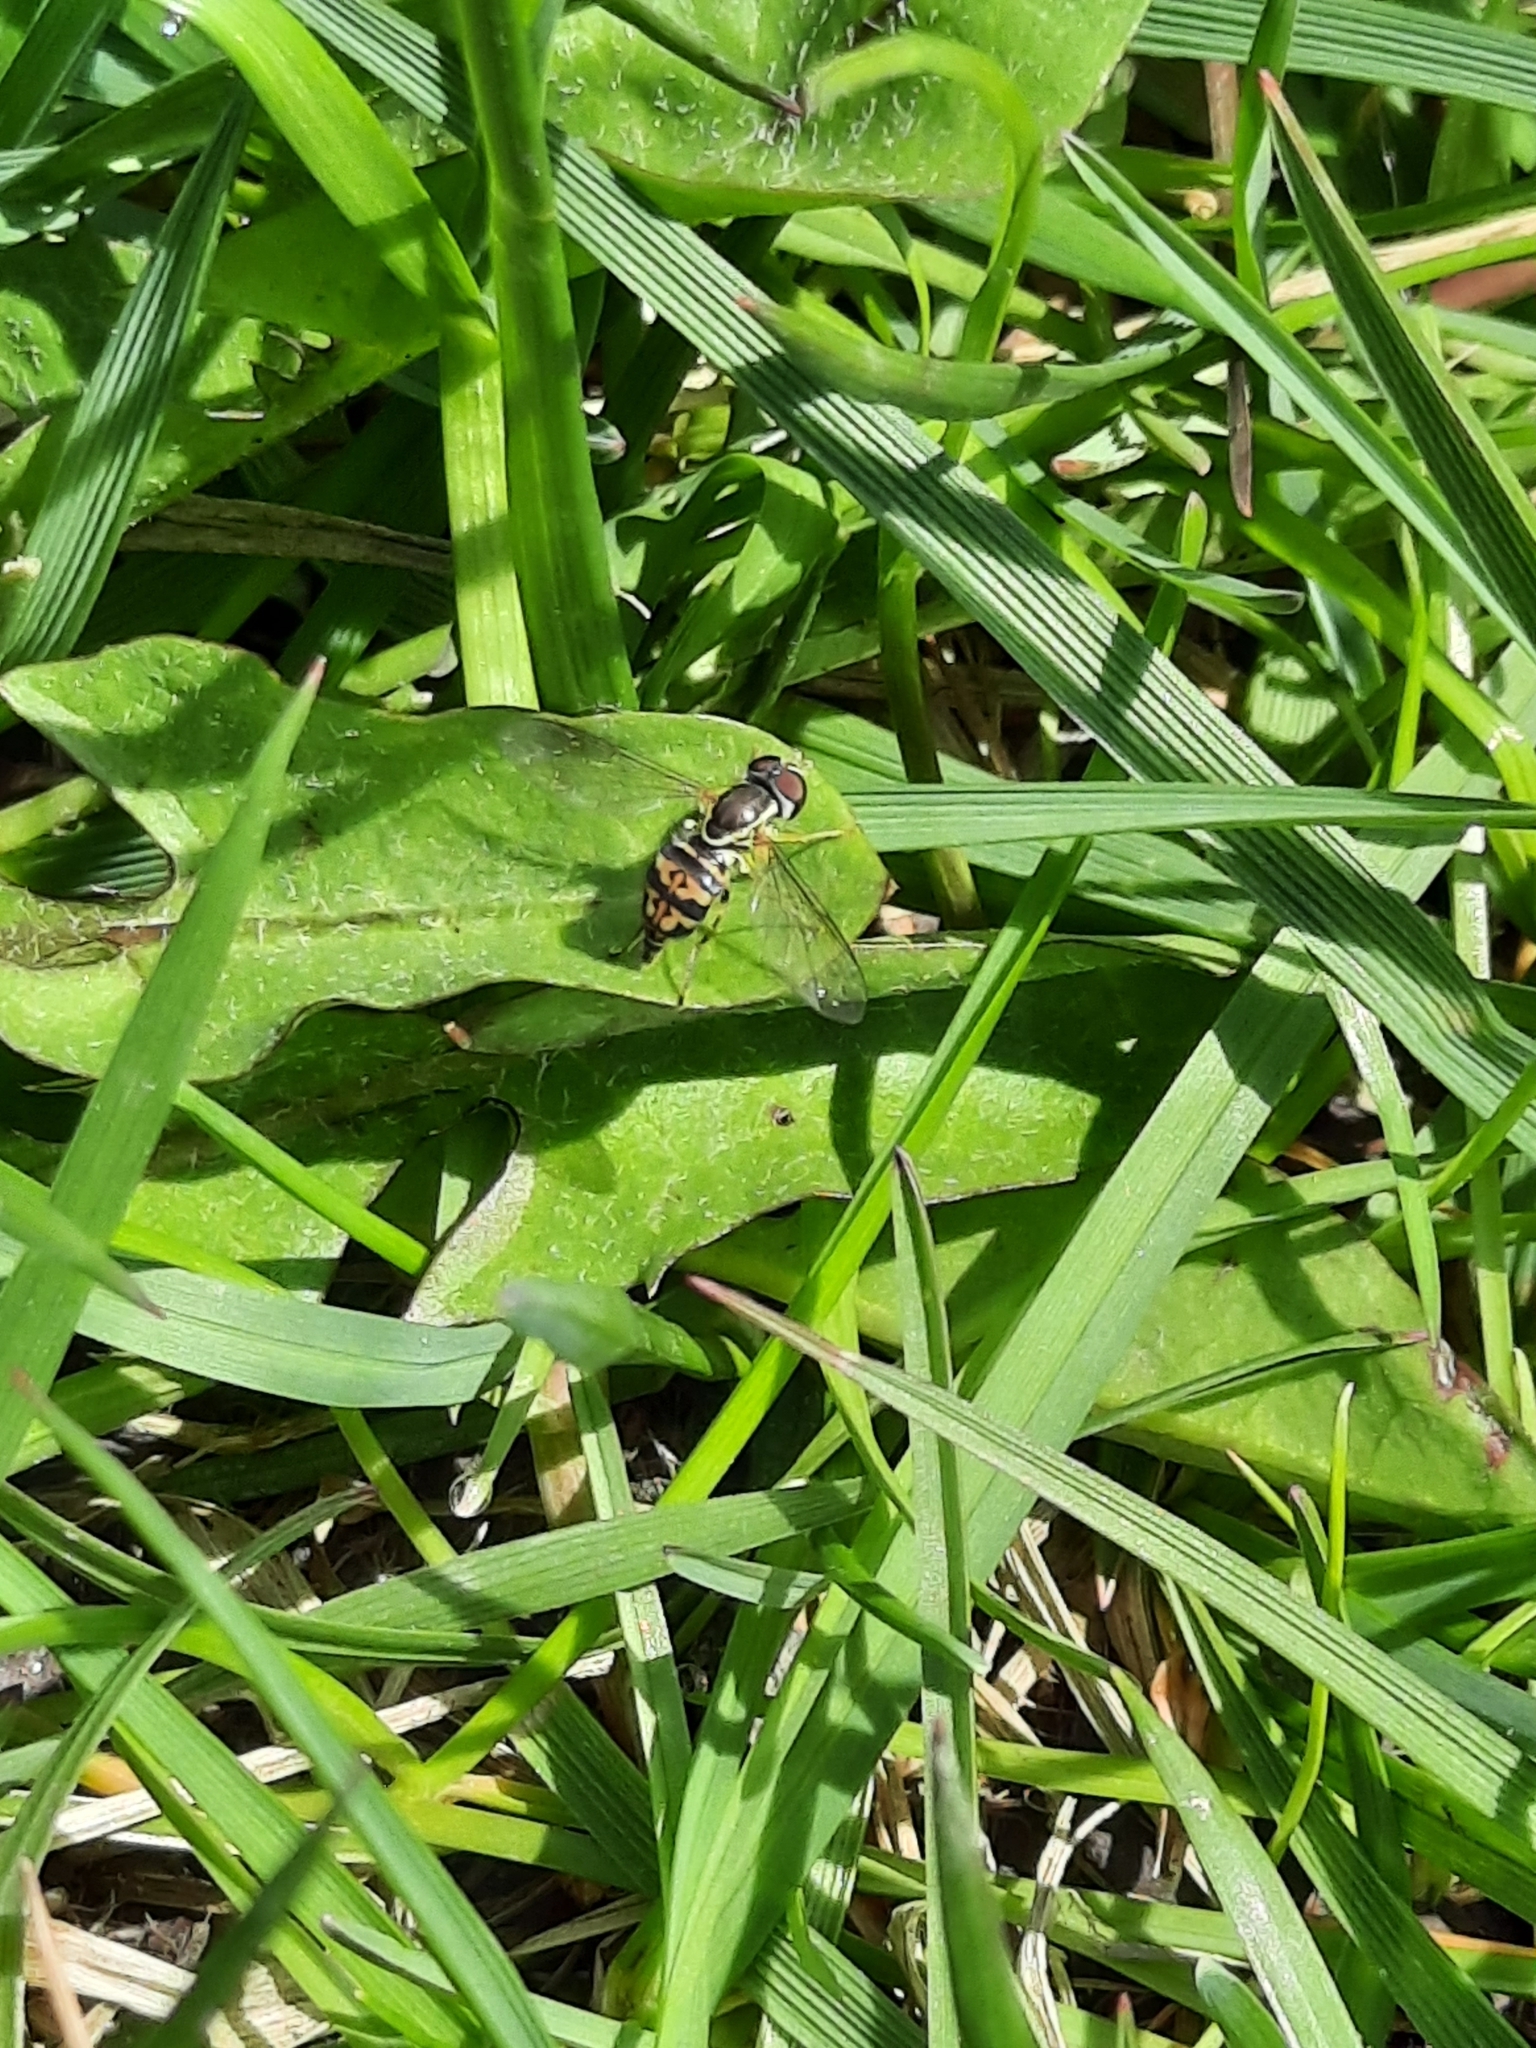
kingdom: Animalia
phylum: Arthropoda
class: Insecta
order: Diptera
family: Syrphidae
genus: Toxomerus
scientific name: Toxomerus geminatus
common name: Eastern calligrapher
